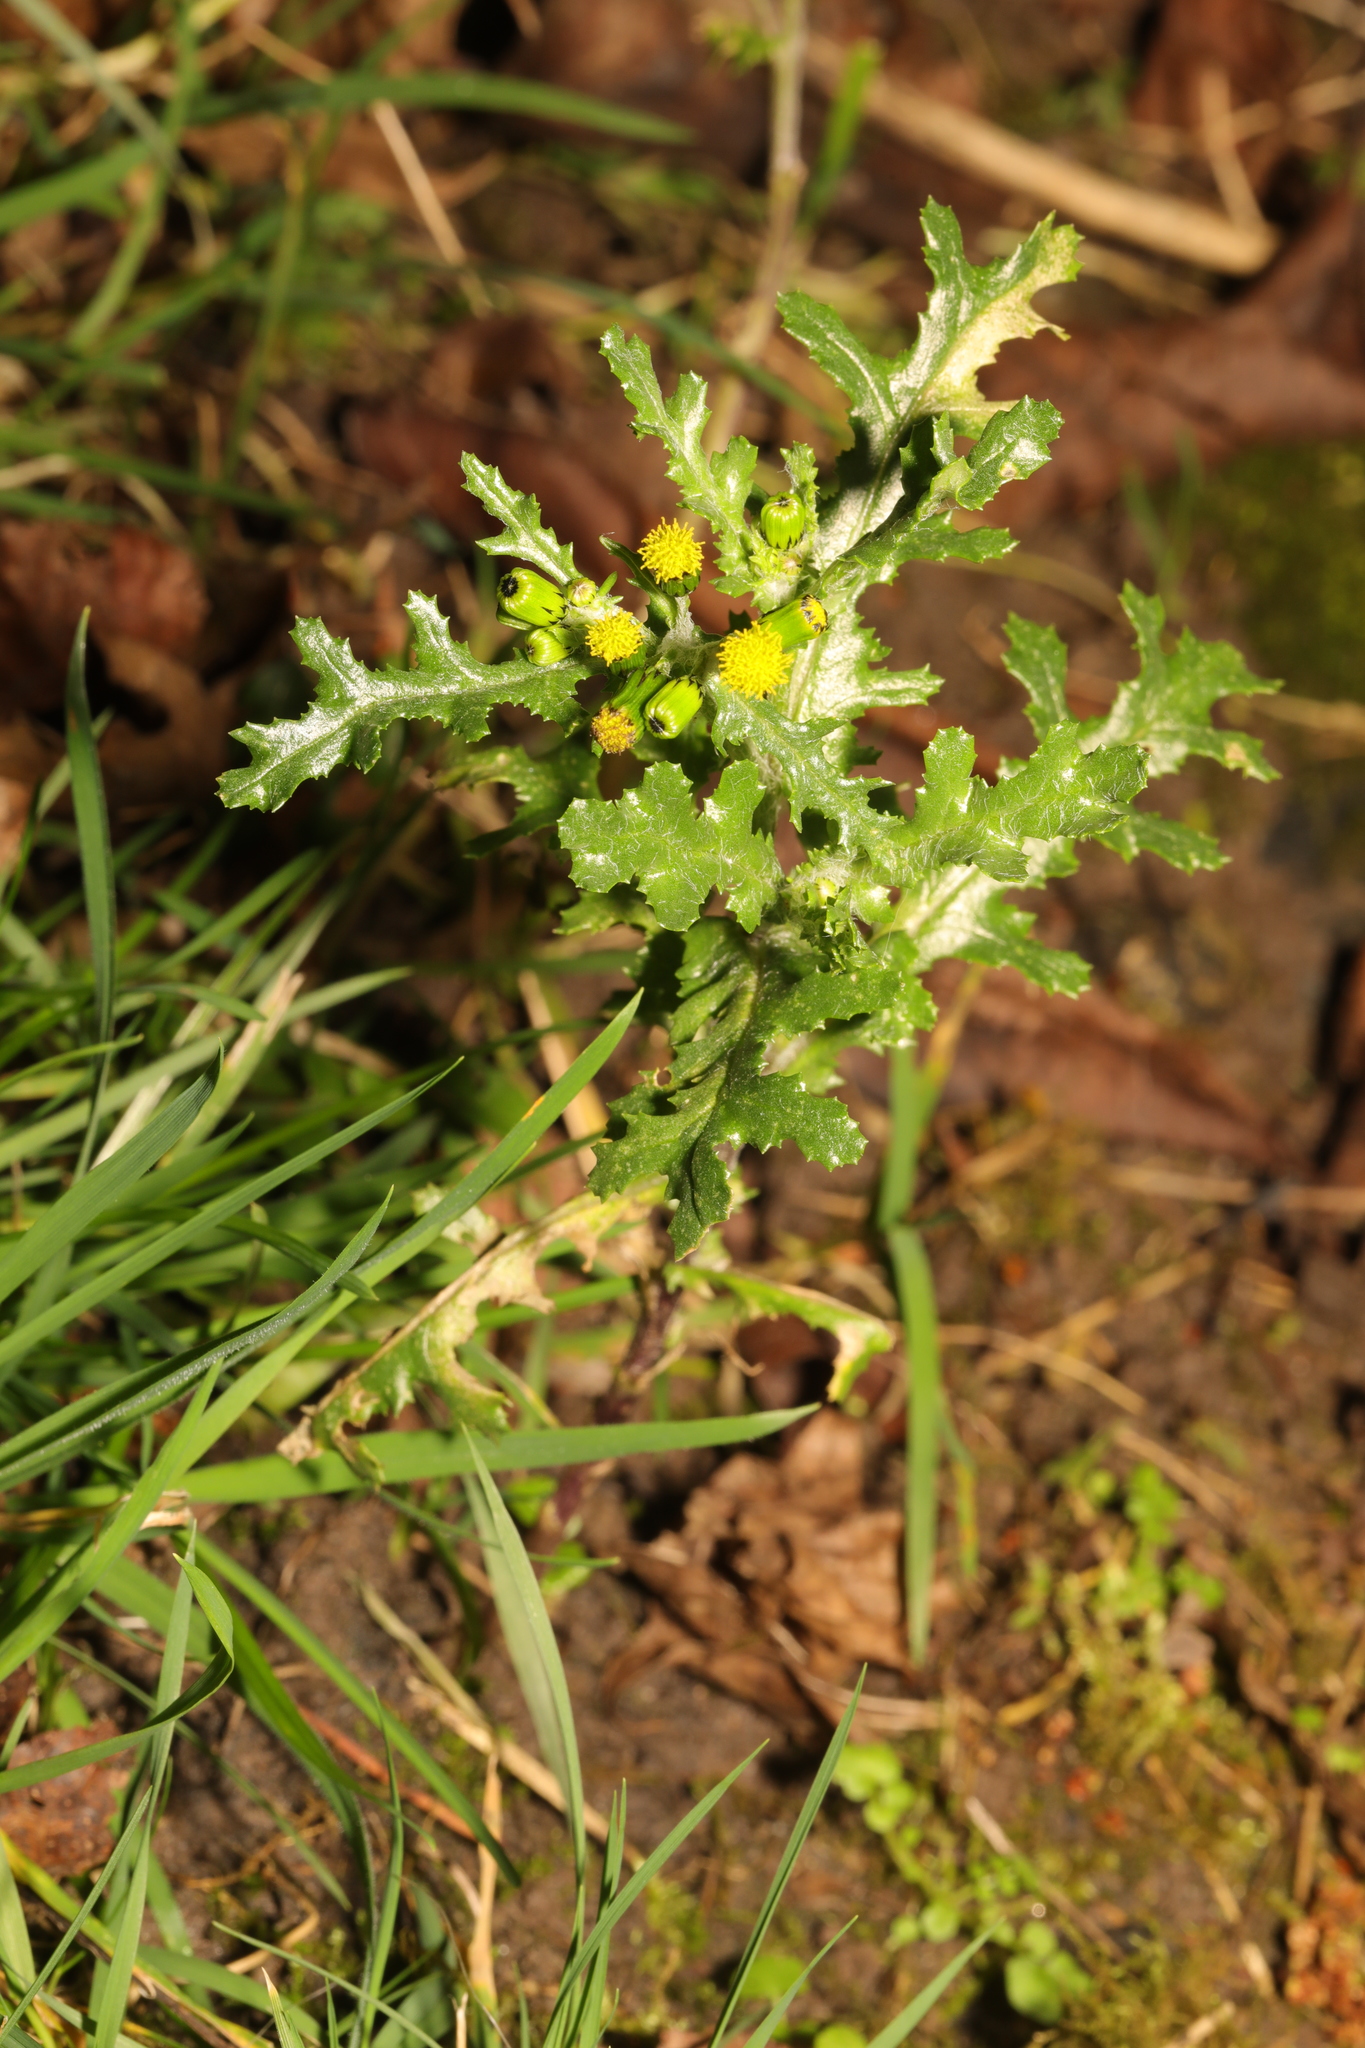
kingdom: Plantae
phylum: Tracheophyta
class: Magnoliopsida
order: Asterales
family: Asteraceae
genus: Senecio
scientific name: Senecio vulgaris
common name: Old-man-in-the-spring
